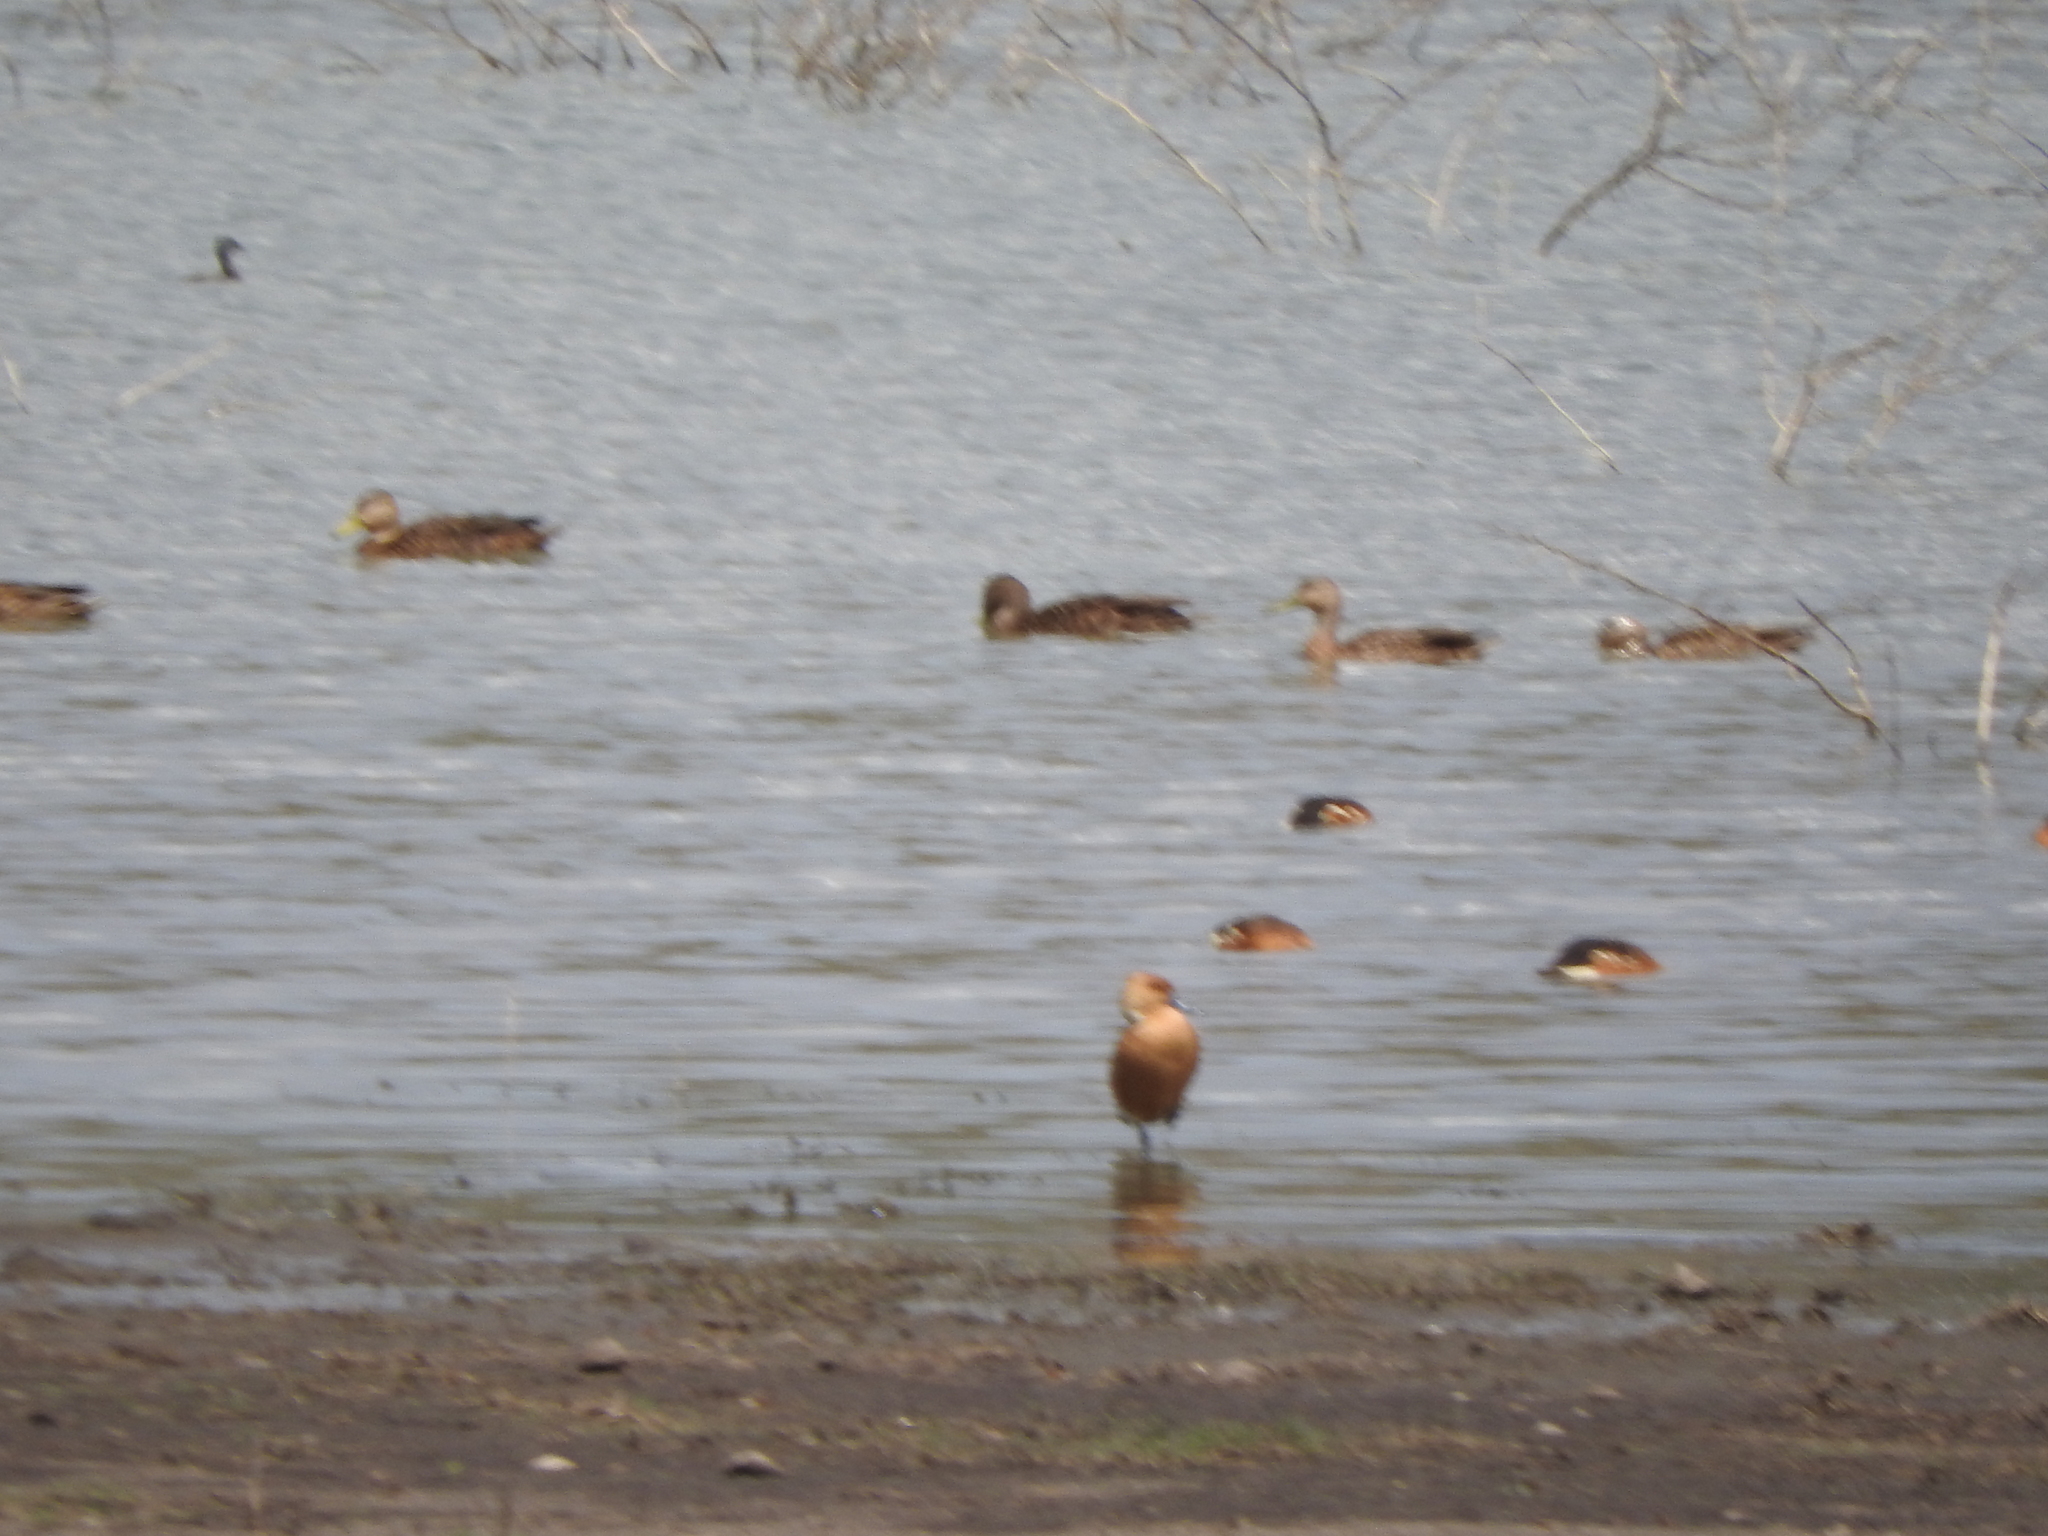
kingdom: Animalia
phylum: Chordata
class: Aves
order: Anseriformes
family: Anatidae
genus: Dendrocygna
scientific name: Dendrocygna bicolor
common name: Fulvous whistling duck
